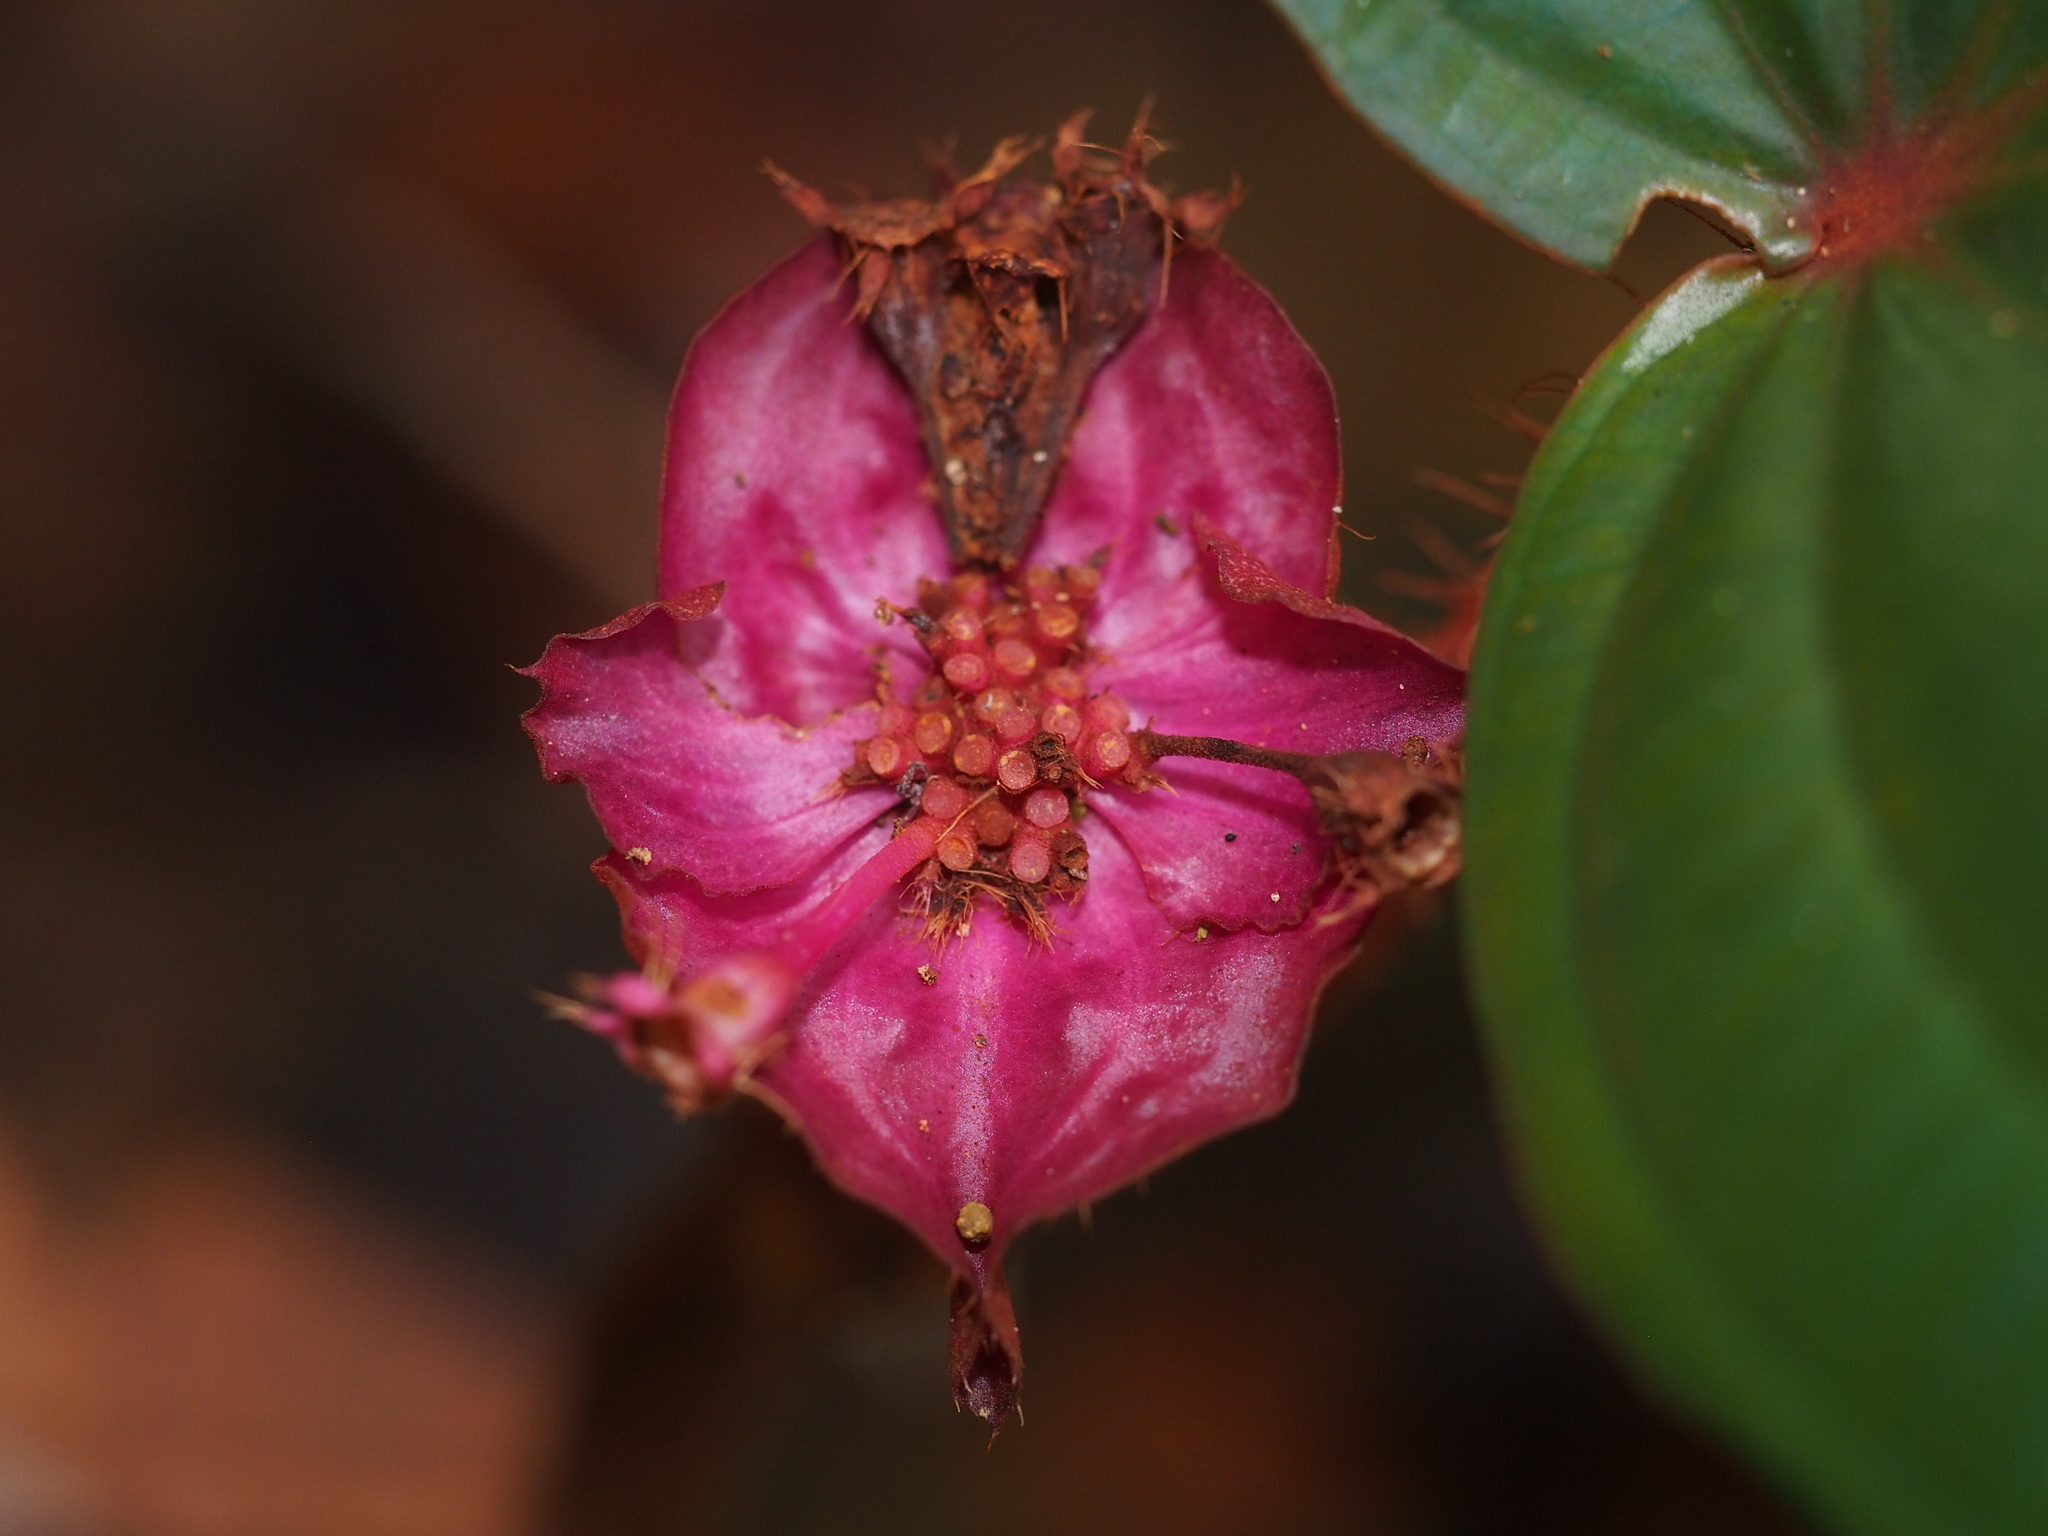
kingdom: Plantae
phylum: Tracheophyta
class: Magnoliopsida
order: Myrtales
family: Melastomataceae
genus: Phyllagathis
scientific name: Phyllagathis rotundifolia
